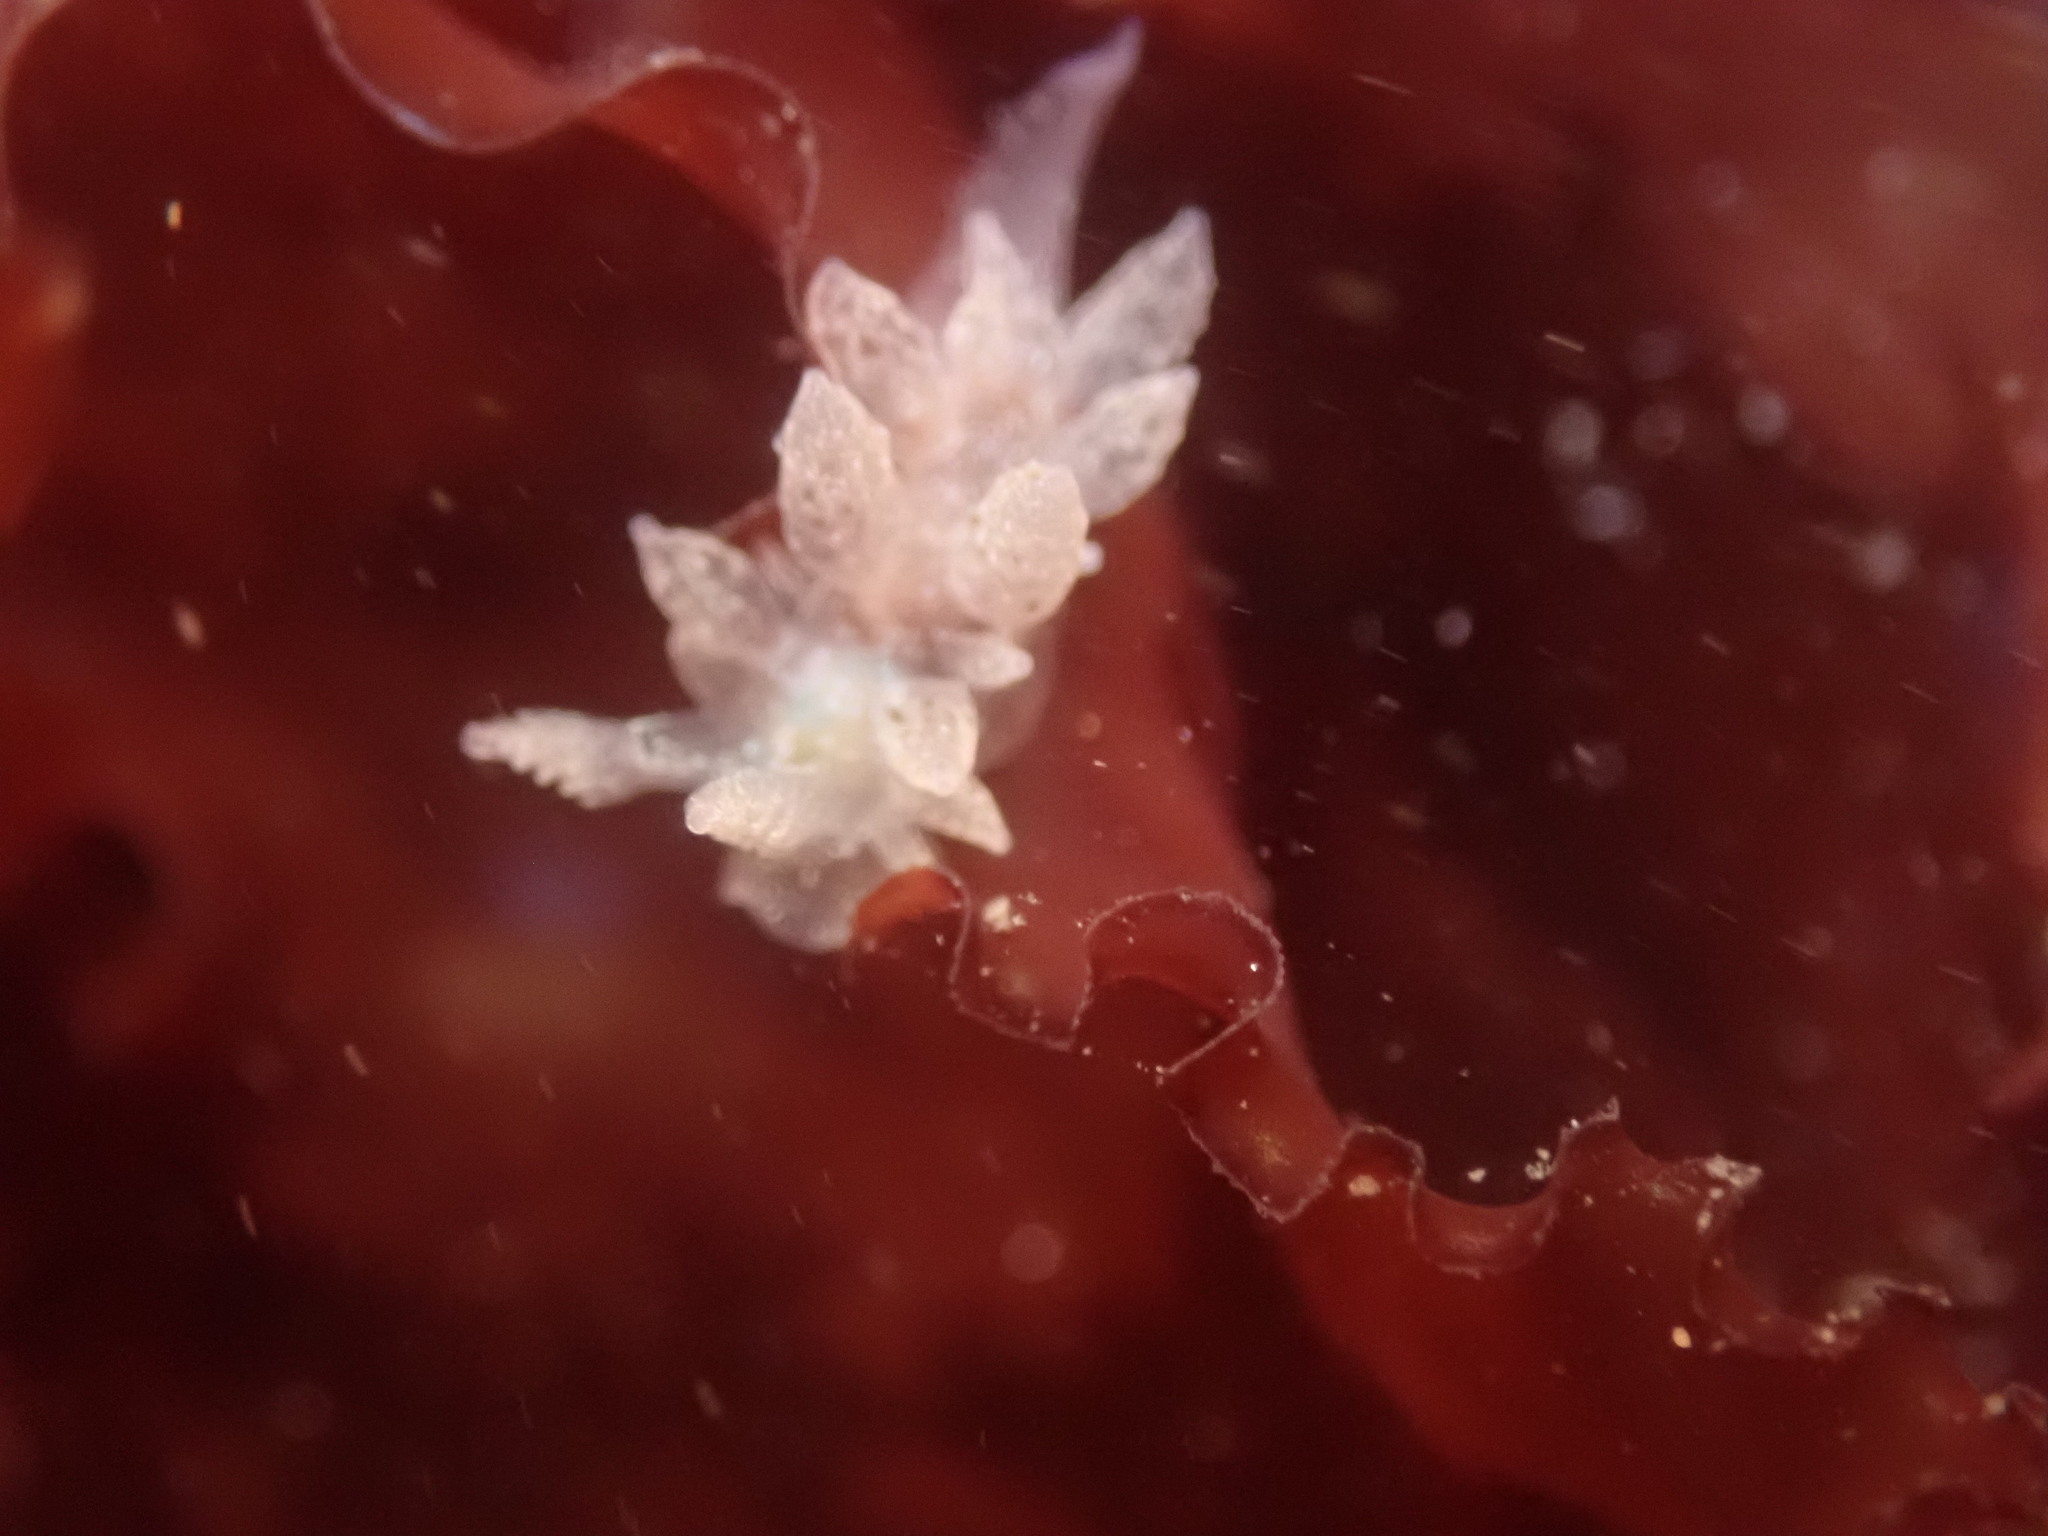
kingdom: Animalia
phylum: Mollusca
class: Gastropoda
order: Nudibranchia
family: Dironidae
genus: Dirona
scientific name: Dirona picta
